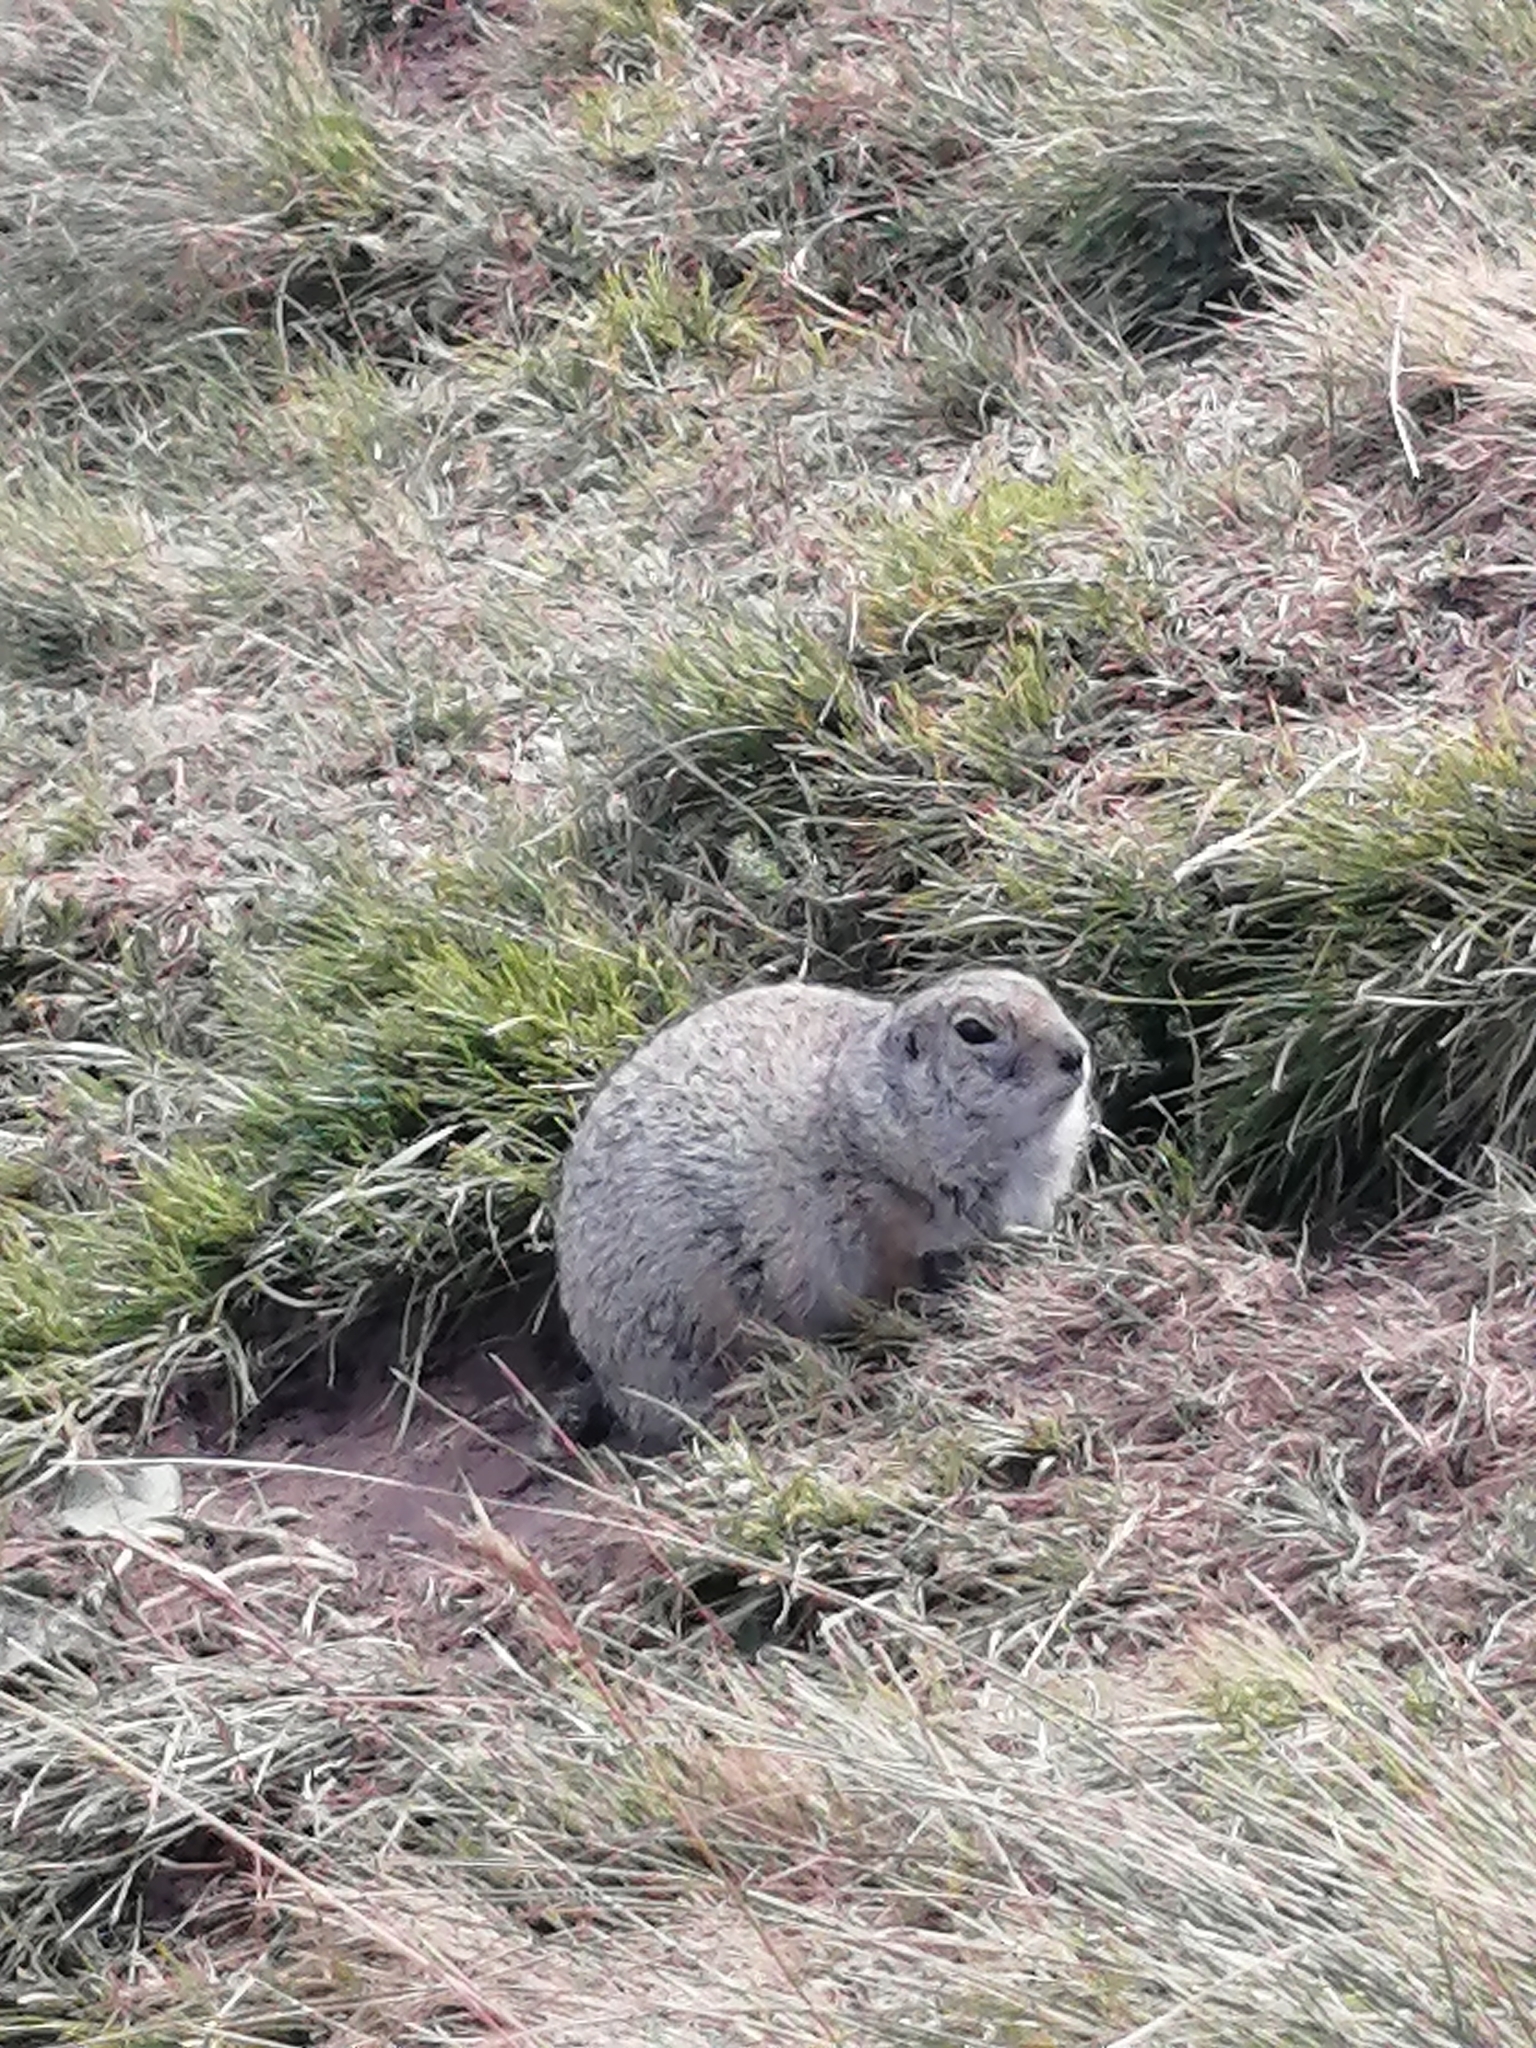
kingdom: Animalia
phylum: Chordata
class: Mammalia
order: Rodentia
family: Sciuridae
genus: Spermophilus
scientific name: Spermophilus musicus
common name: Caucasian mountain ground squirrel
